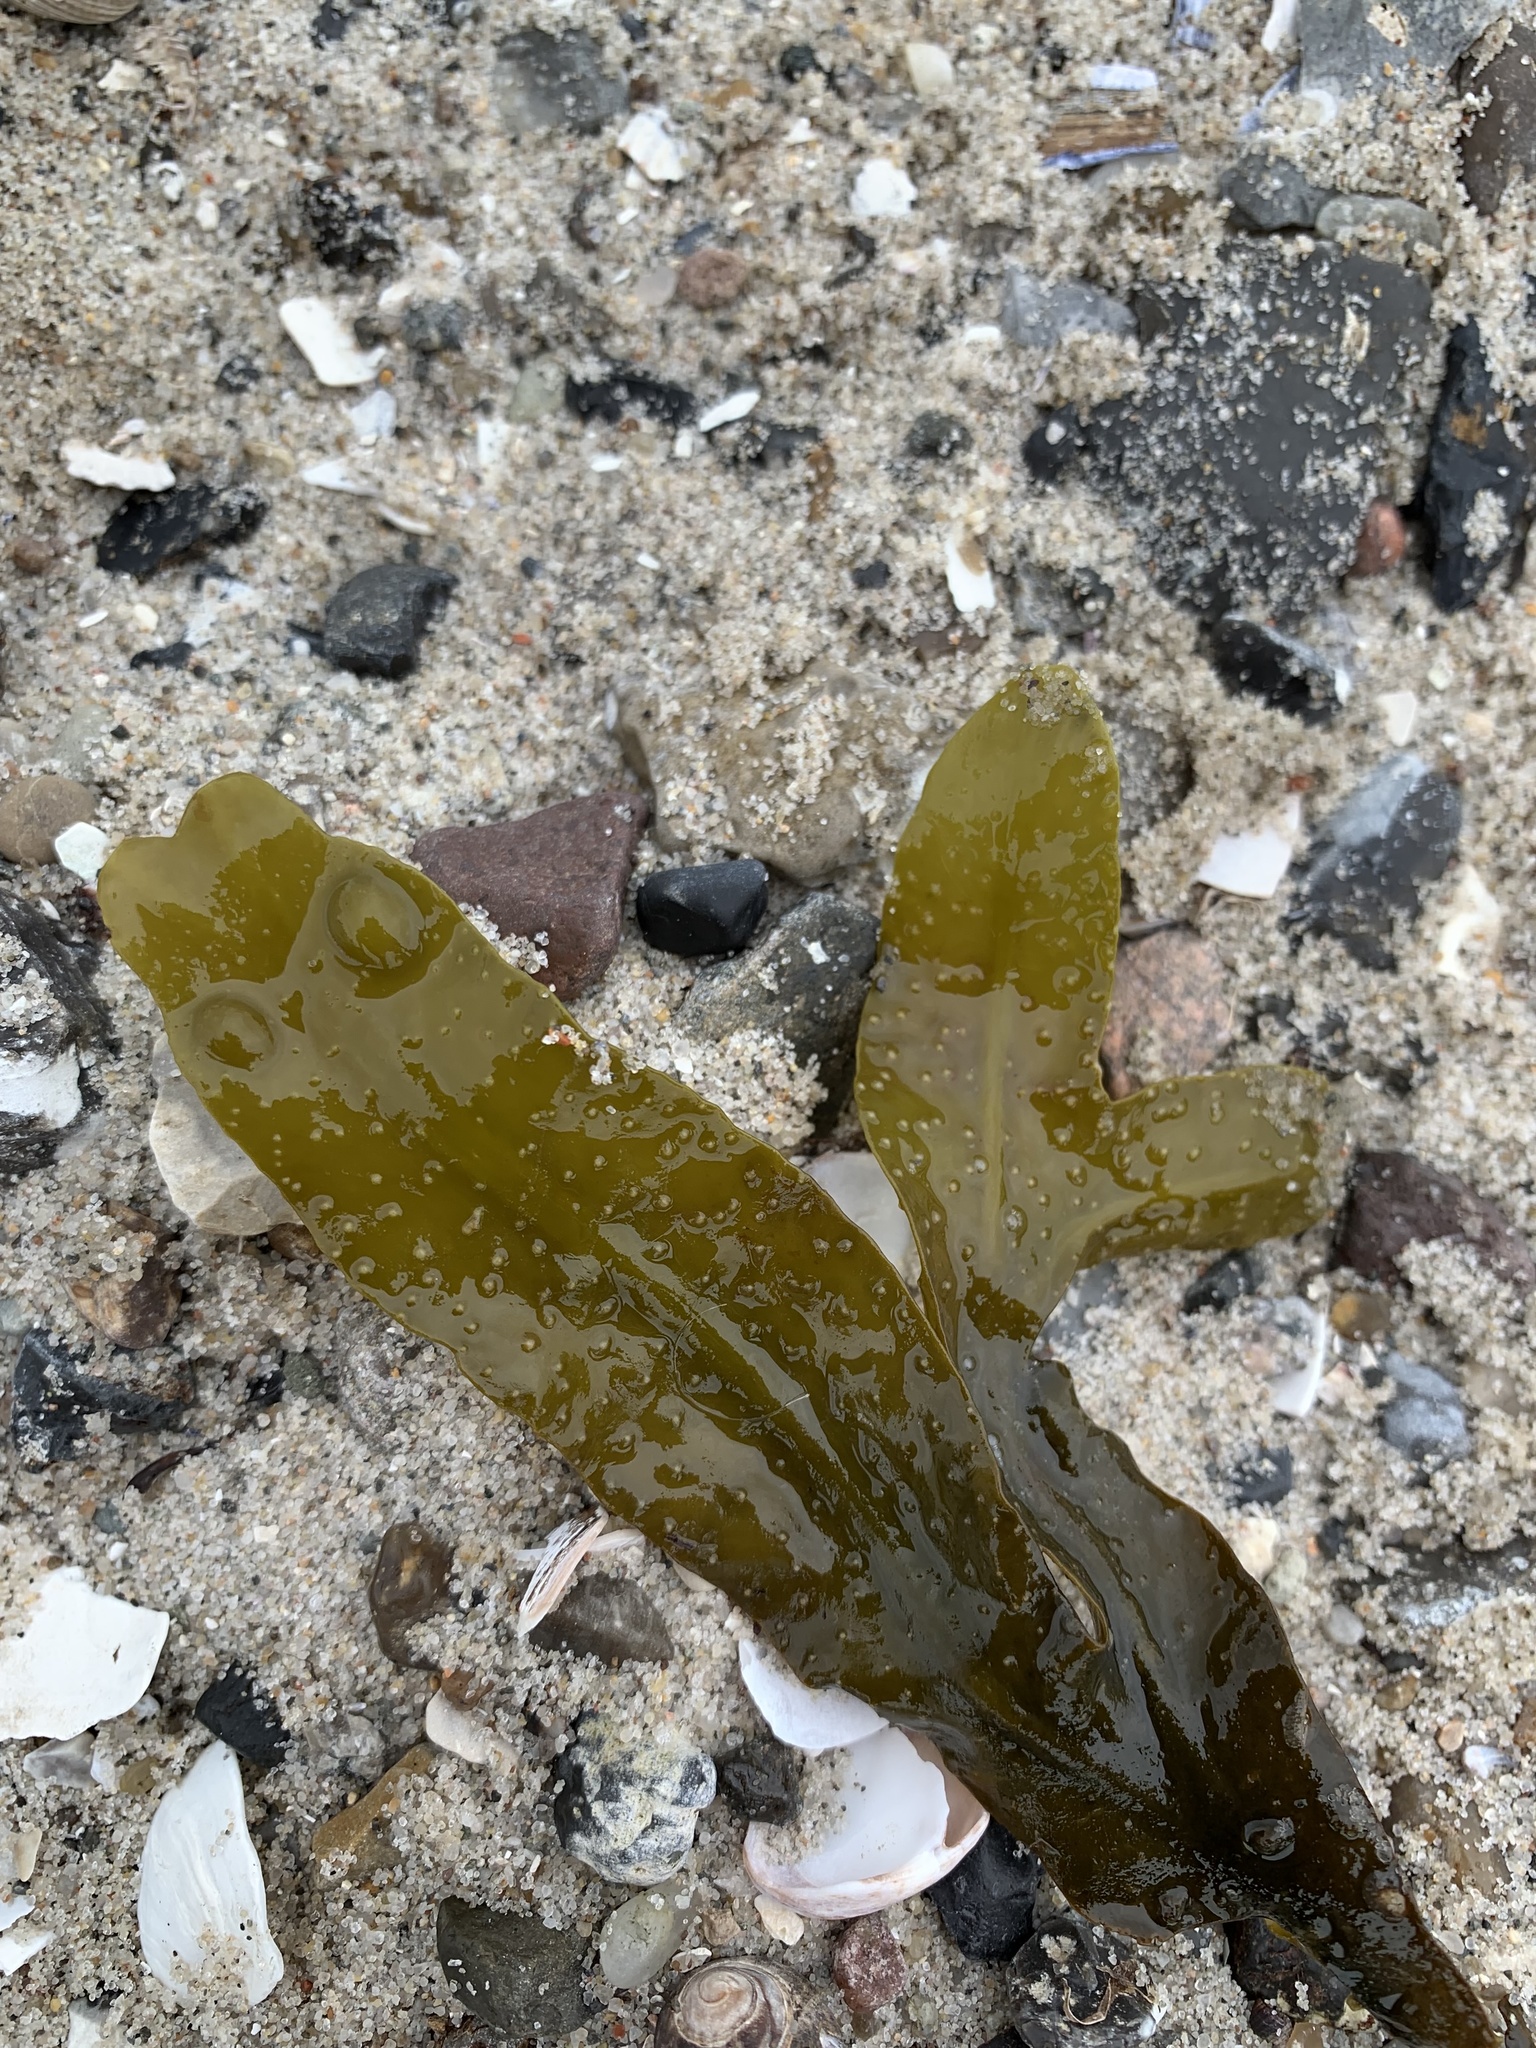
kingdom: Chromista
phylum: Ochrophyta
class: Phaeophyceae
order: Fucales
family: Fucaceae
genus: Fucus
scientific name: Fucus vesiculosus
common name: Bladder wrack
